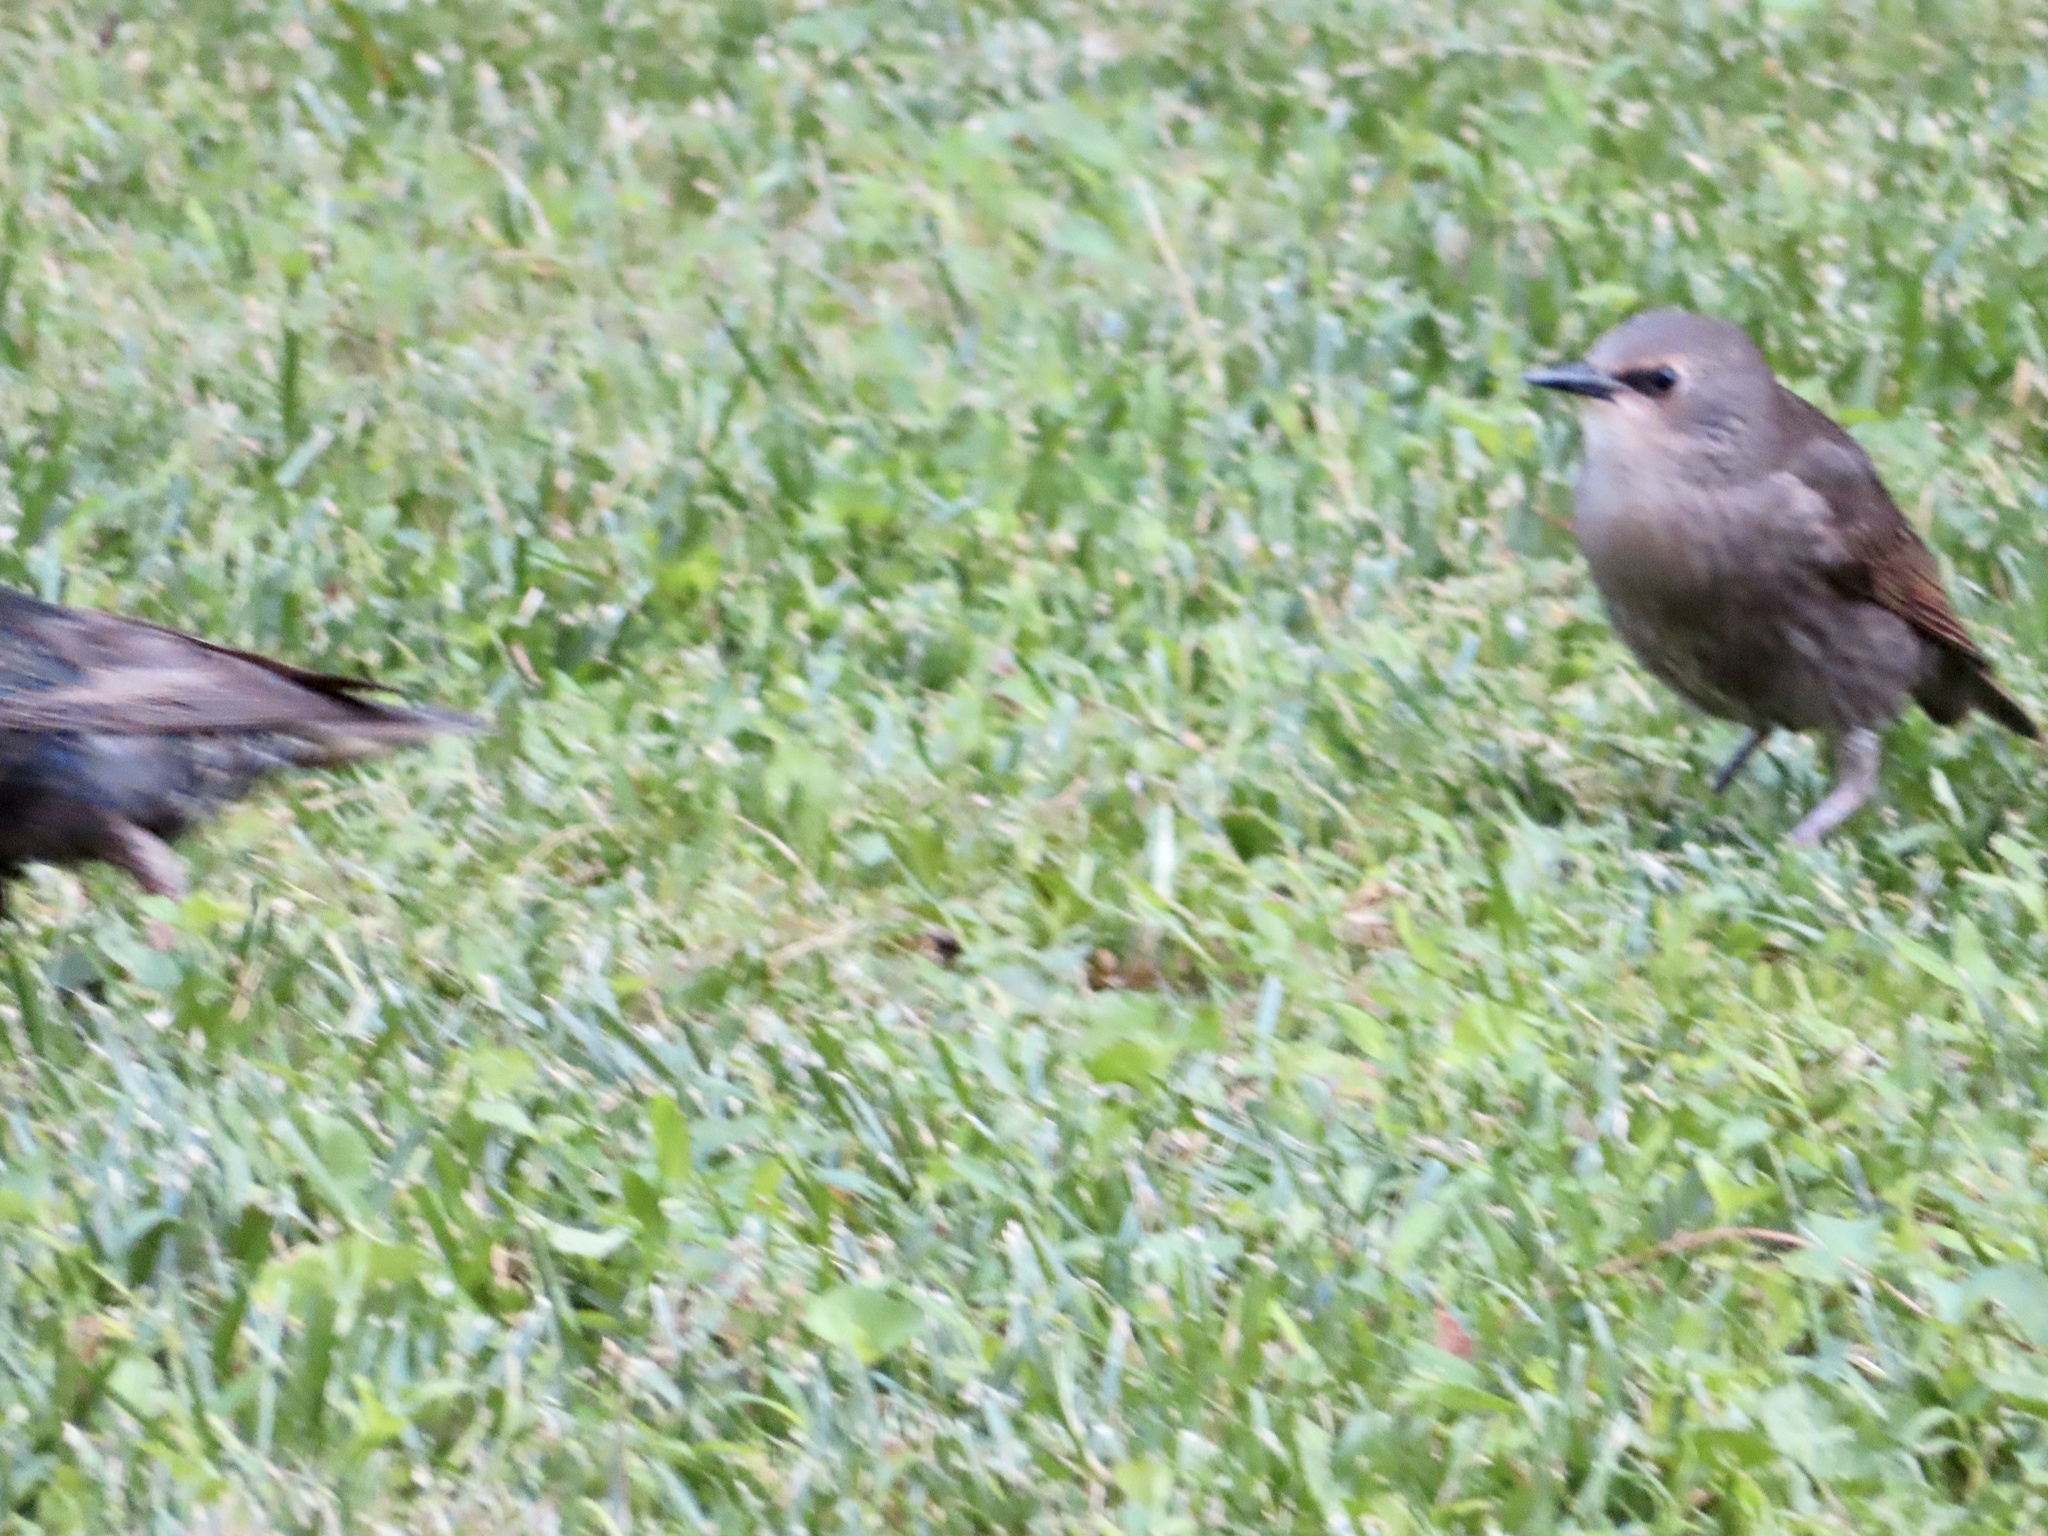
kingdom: Animalia
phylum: Chordata
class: Aves
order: Passeriformes
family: Sturnidae
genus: Sturnus
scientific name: Sturnus vulgaris
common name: Common starling
